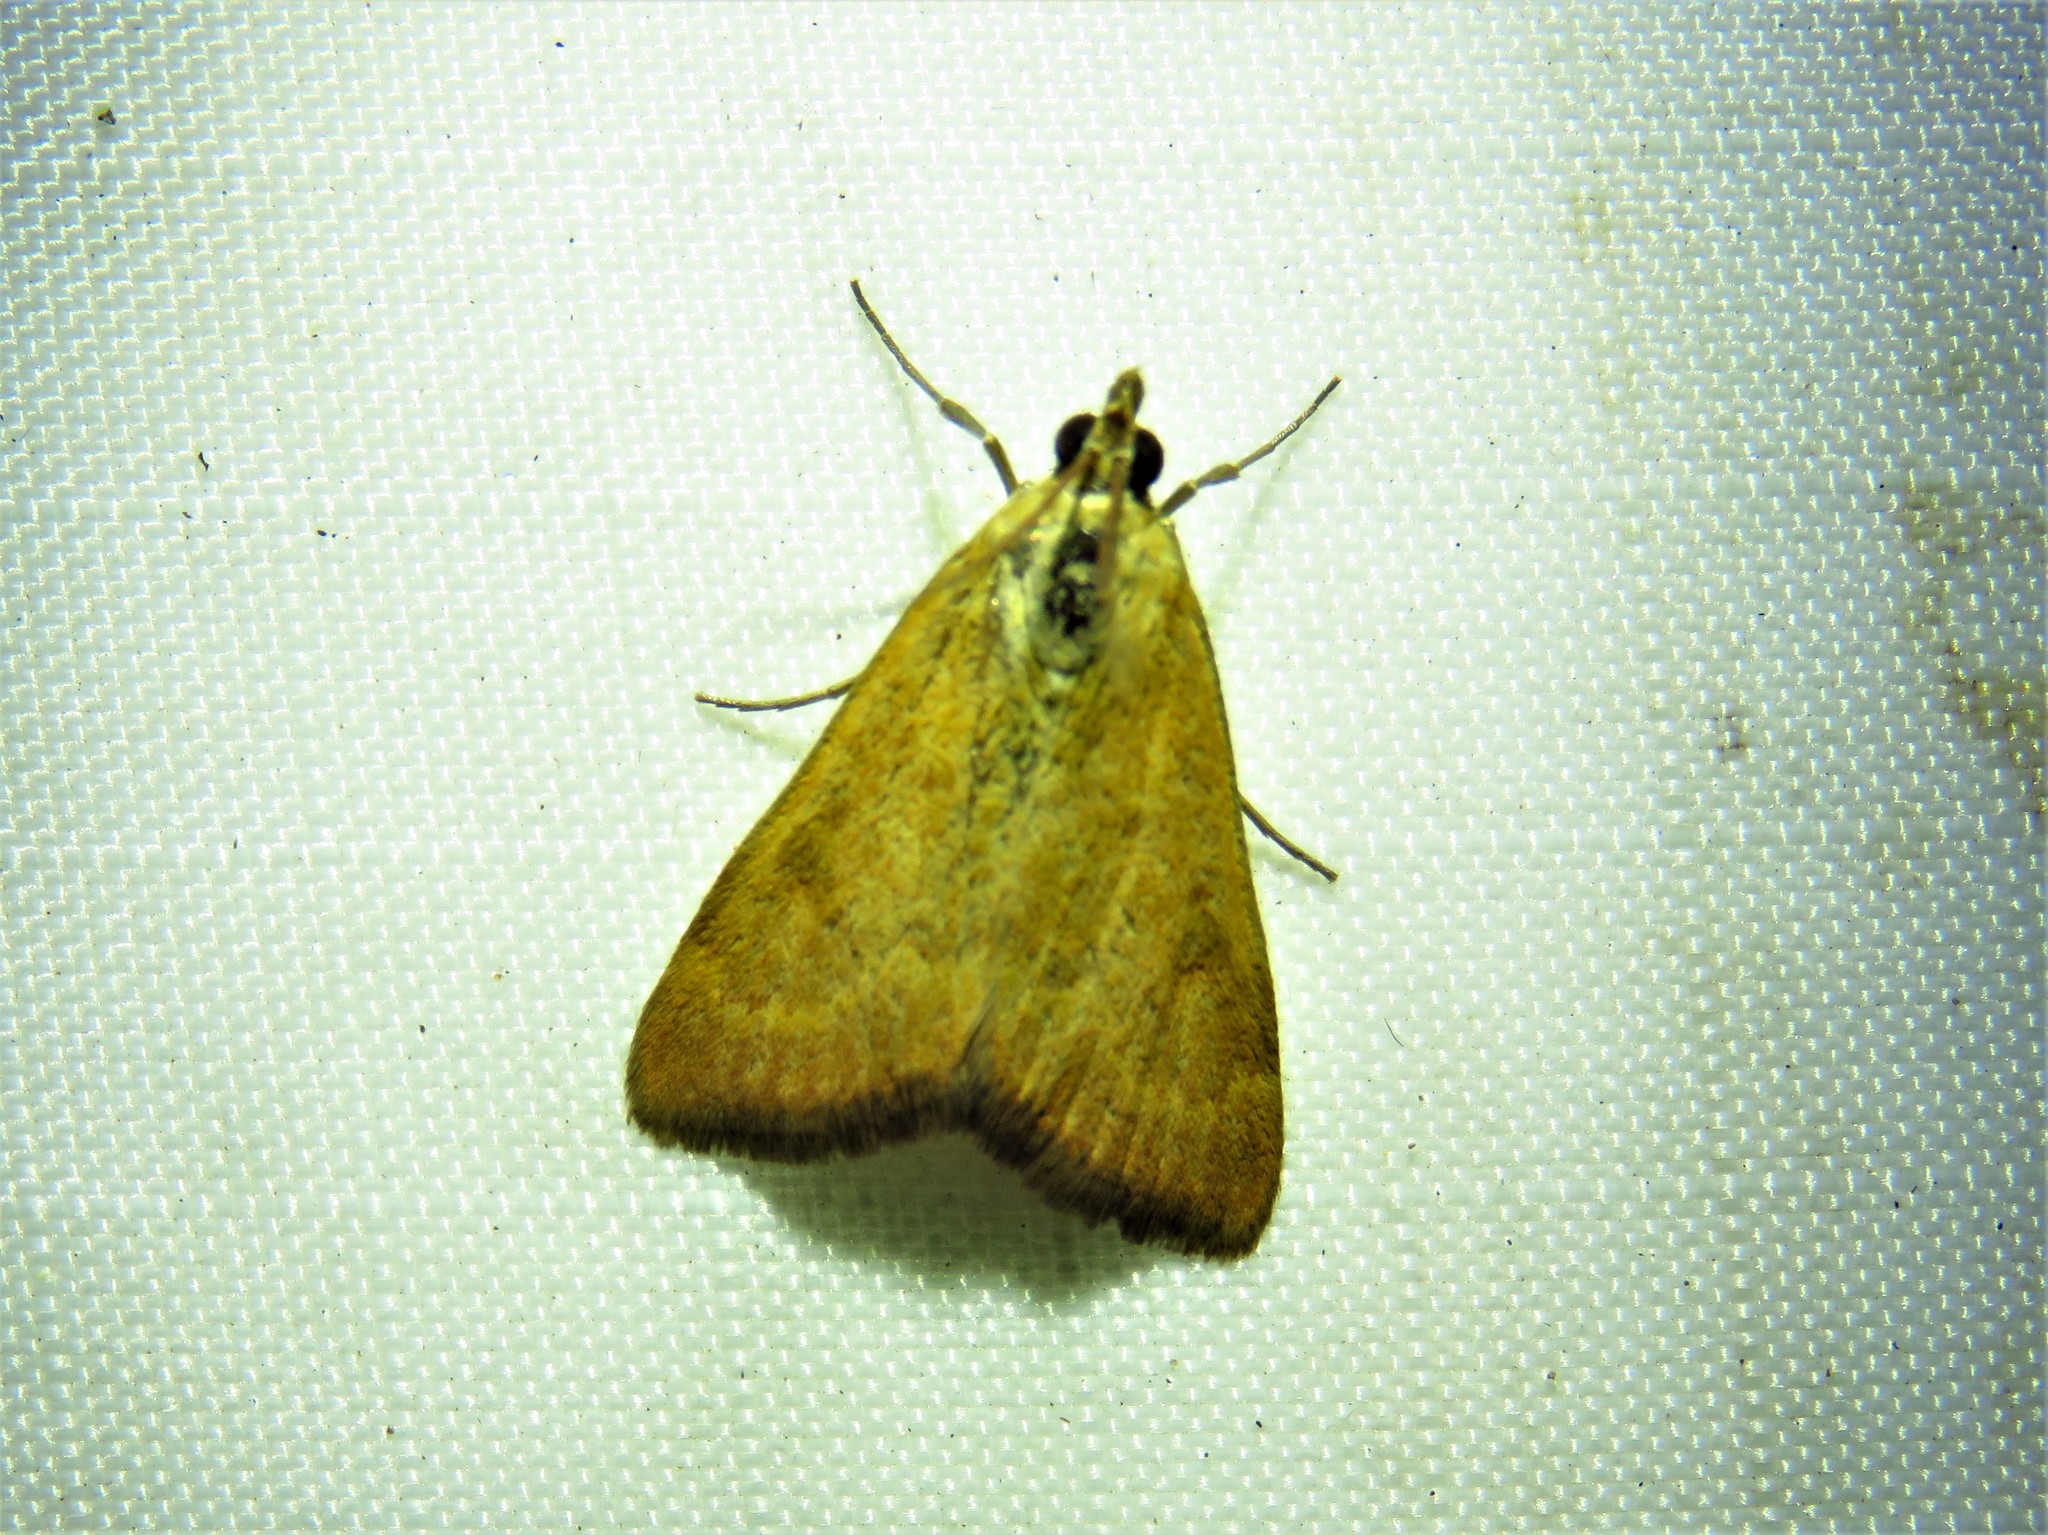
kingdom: Animalia
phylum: Arthropoda
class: Insecta
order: Lepidoptera
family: Crambidae
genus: Achyra
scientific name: Achyra rantalis
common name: Garden webworm
